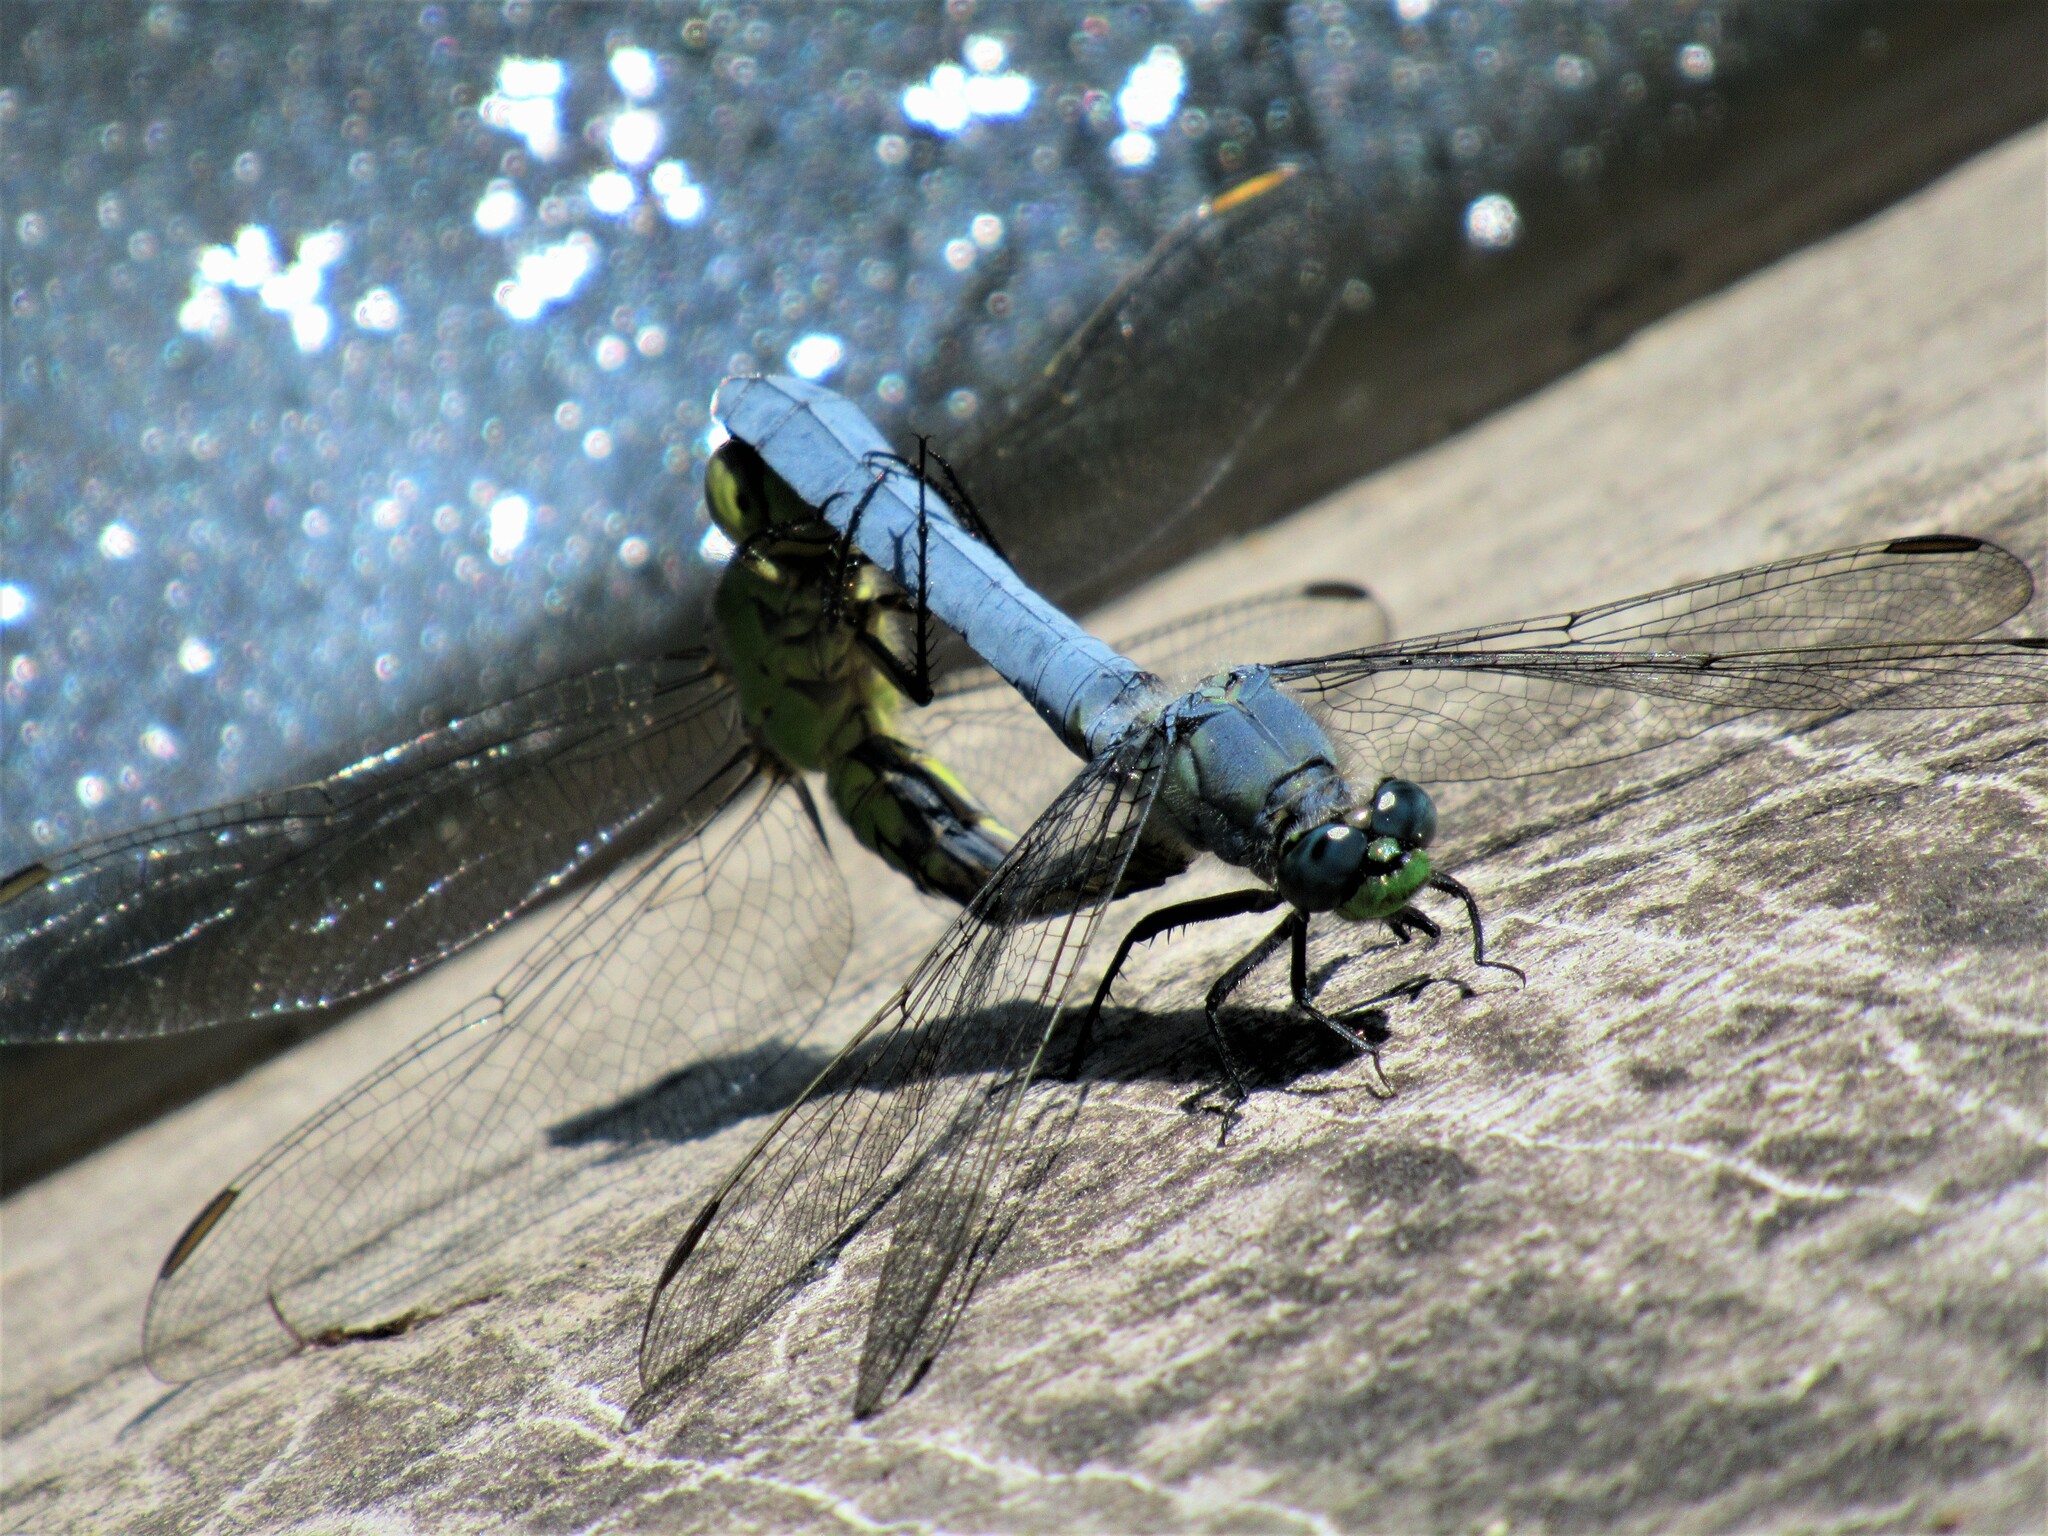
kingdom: Animalia
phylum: Arthropoda
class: Insecta
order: Odonata
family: Libellulidae
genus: Erythemis
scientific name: Erythemis collocata
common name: Western pondhawk
